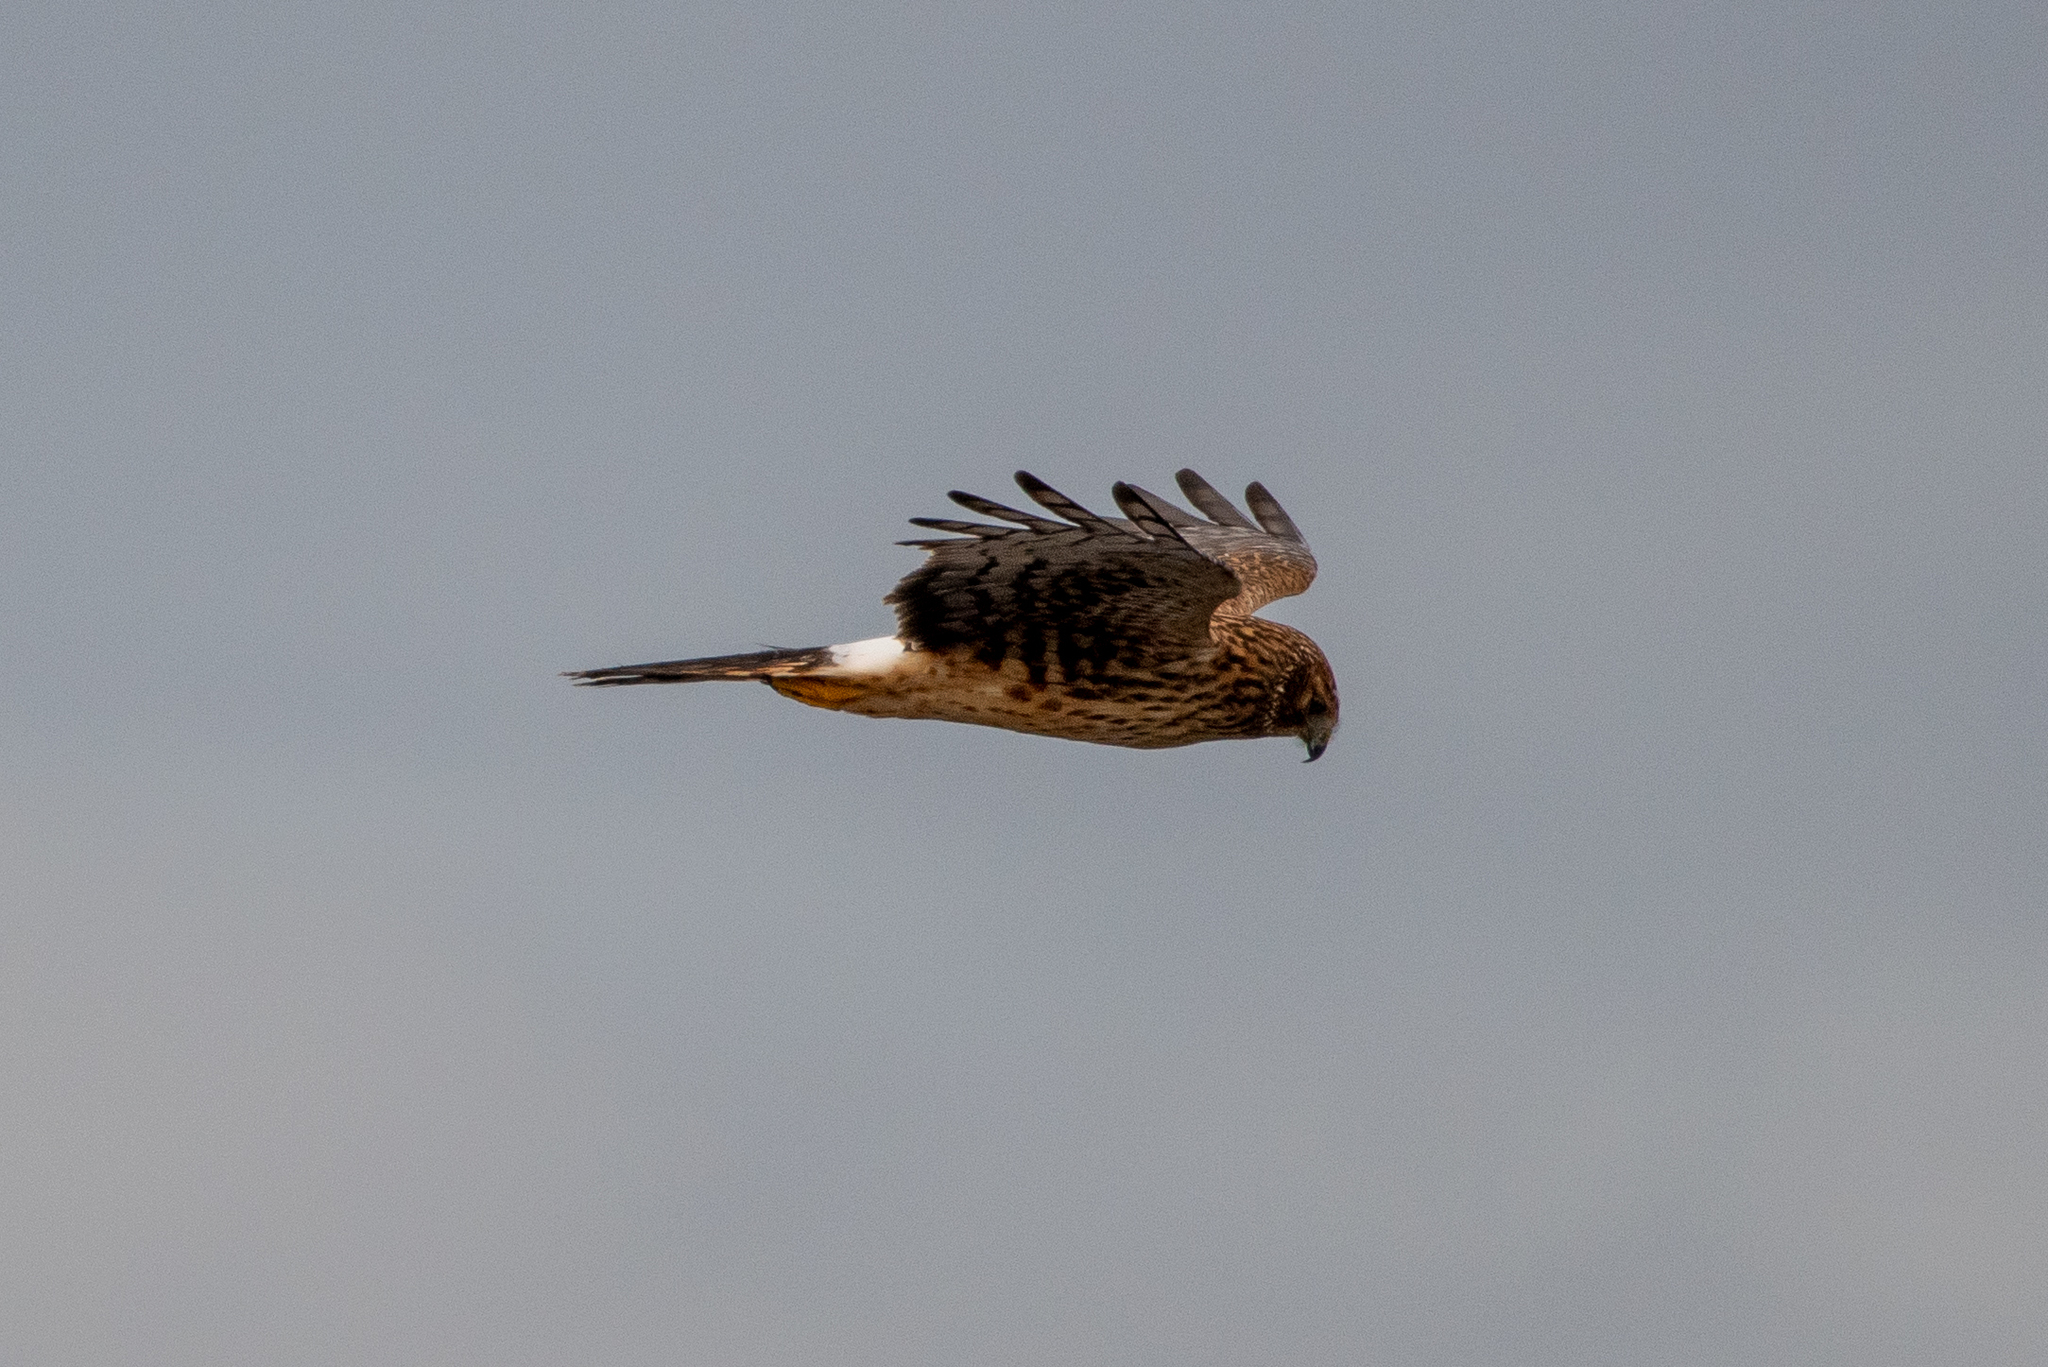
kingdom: Animalia
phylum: Chordata
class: Aves
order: Accipitriformes
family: Accipitridae
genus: Circus
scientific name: Circus cyaneus
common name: Hen harrier
